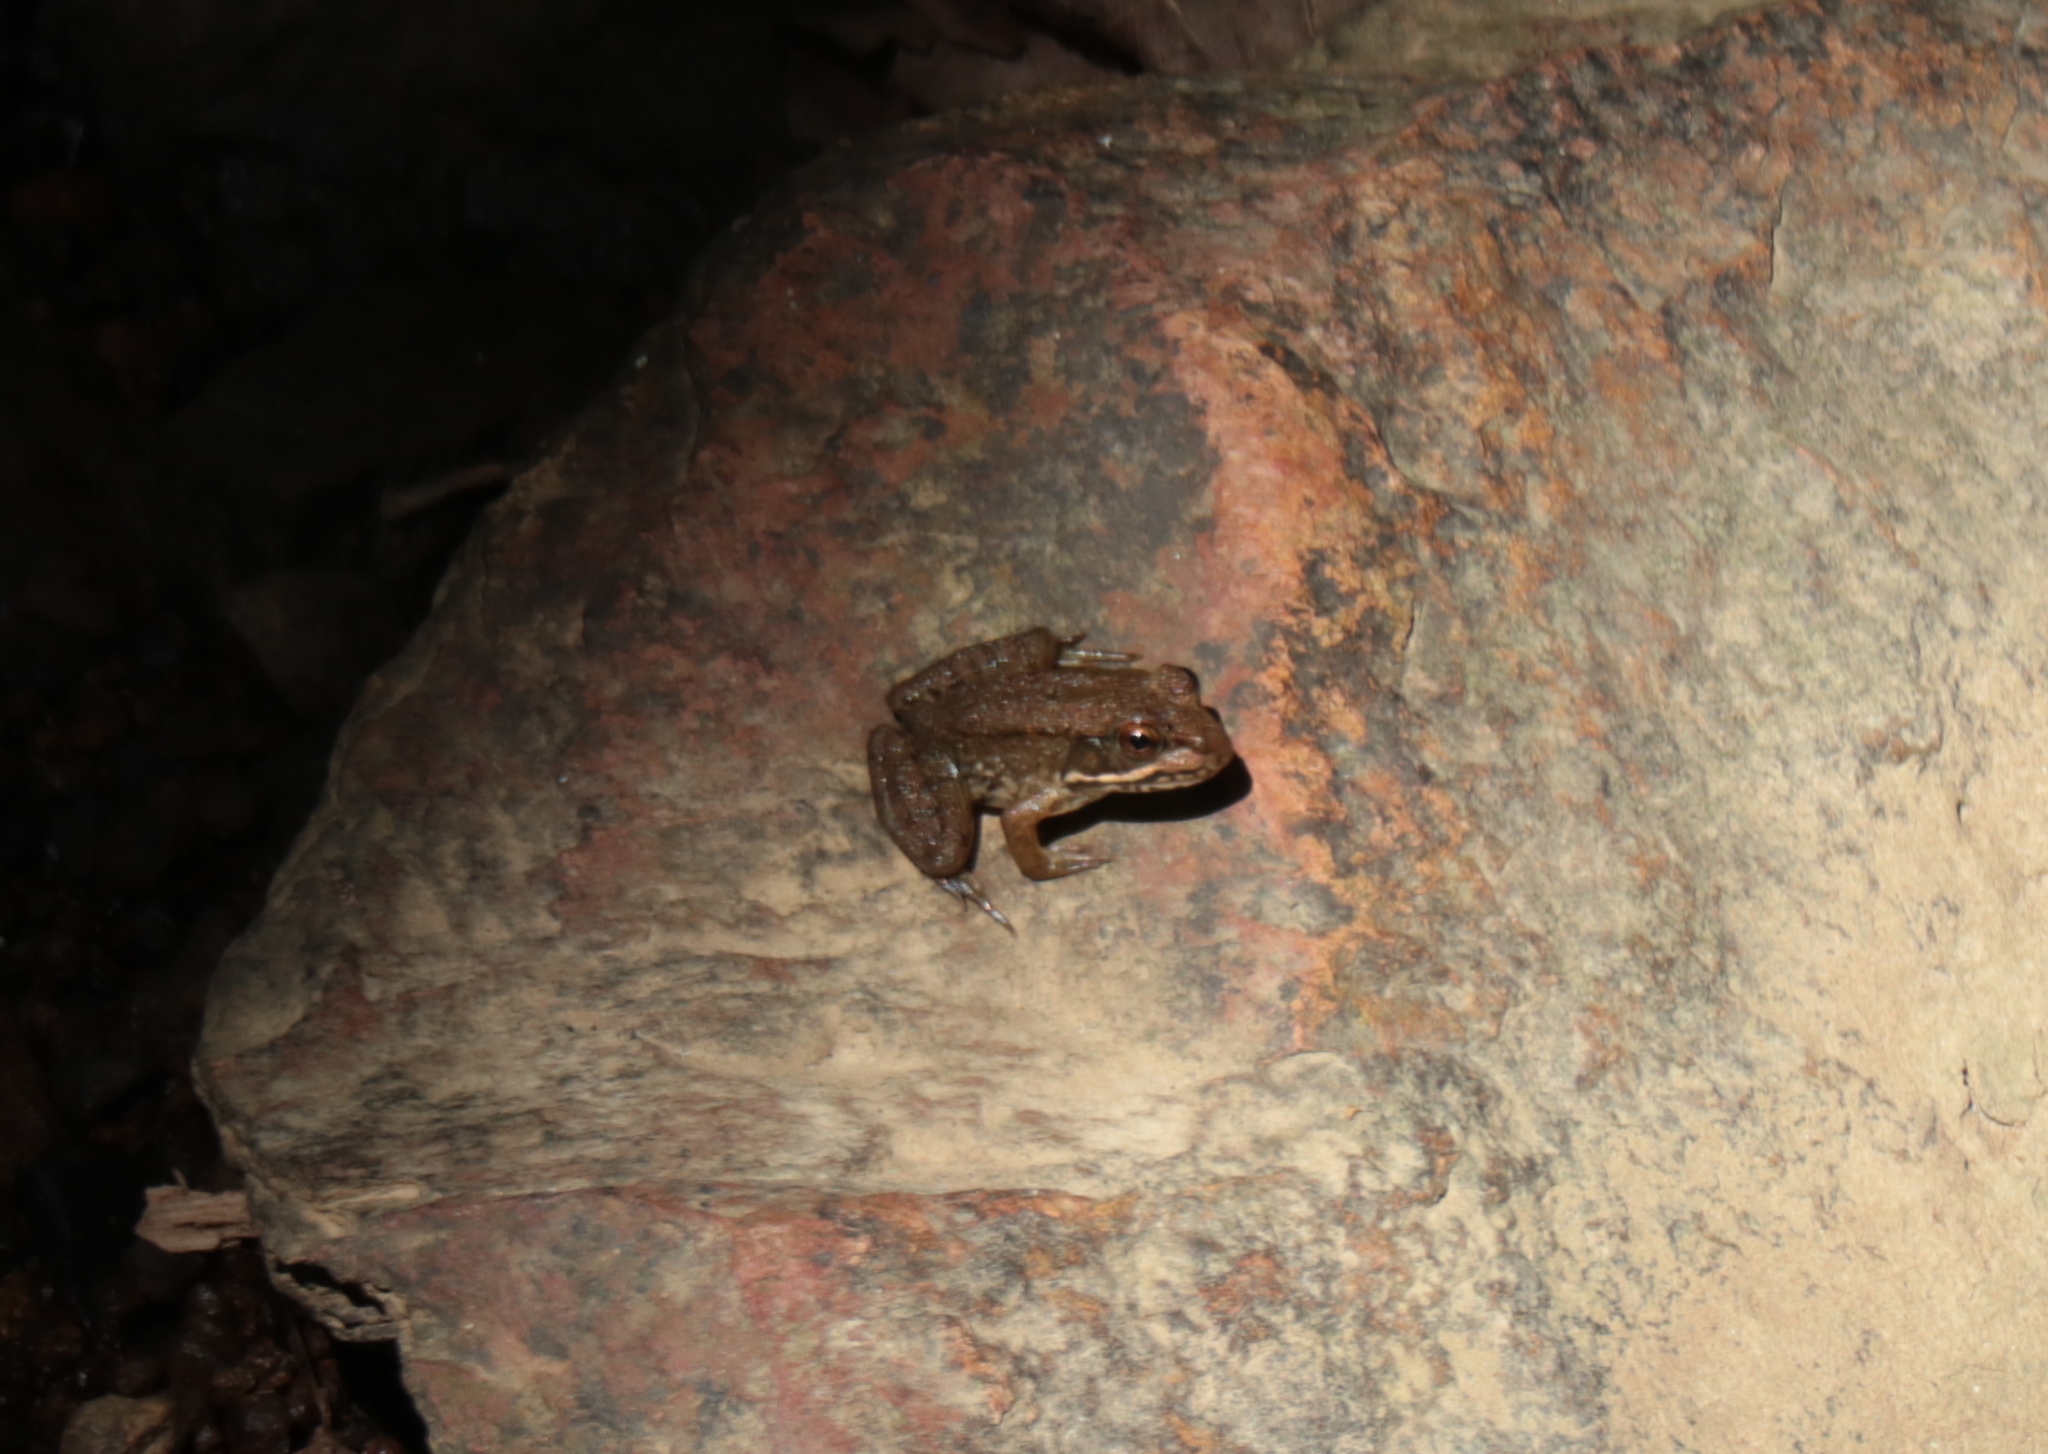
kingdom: Animalia
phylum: Chordata
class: Amphibia
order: Anura
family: Ranidae
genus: Lithobates
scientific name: Lithobates clamitans
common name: Green frog
